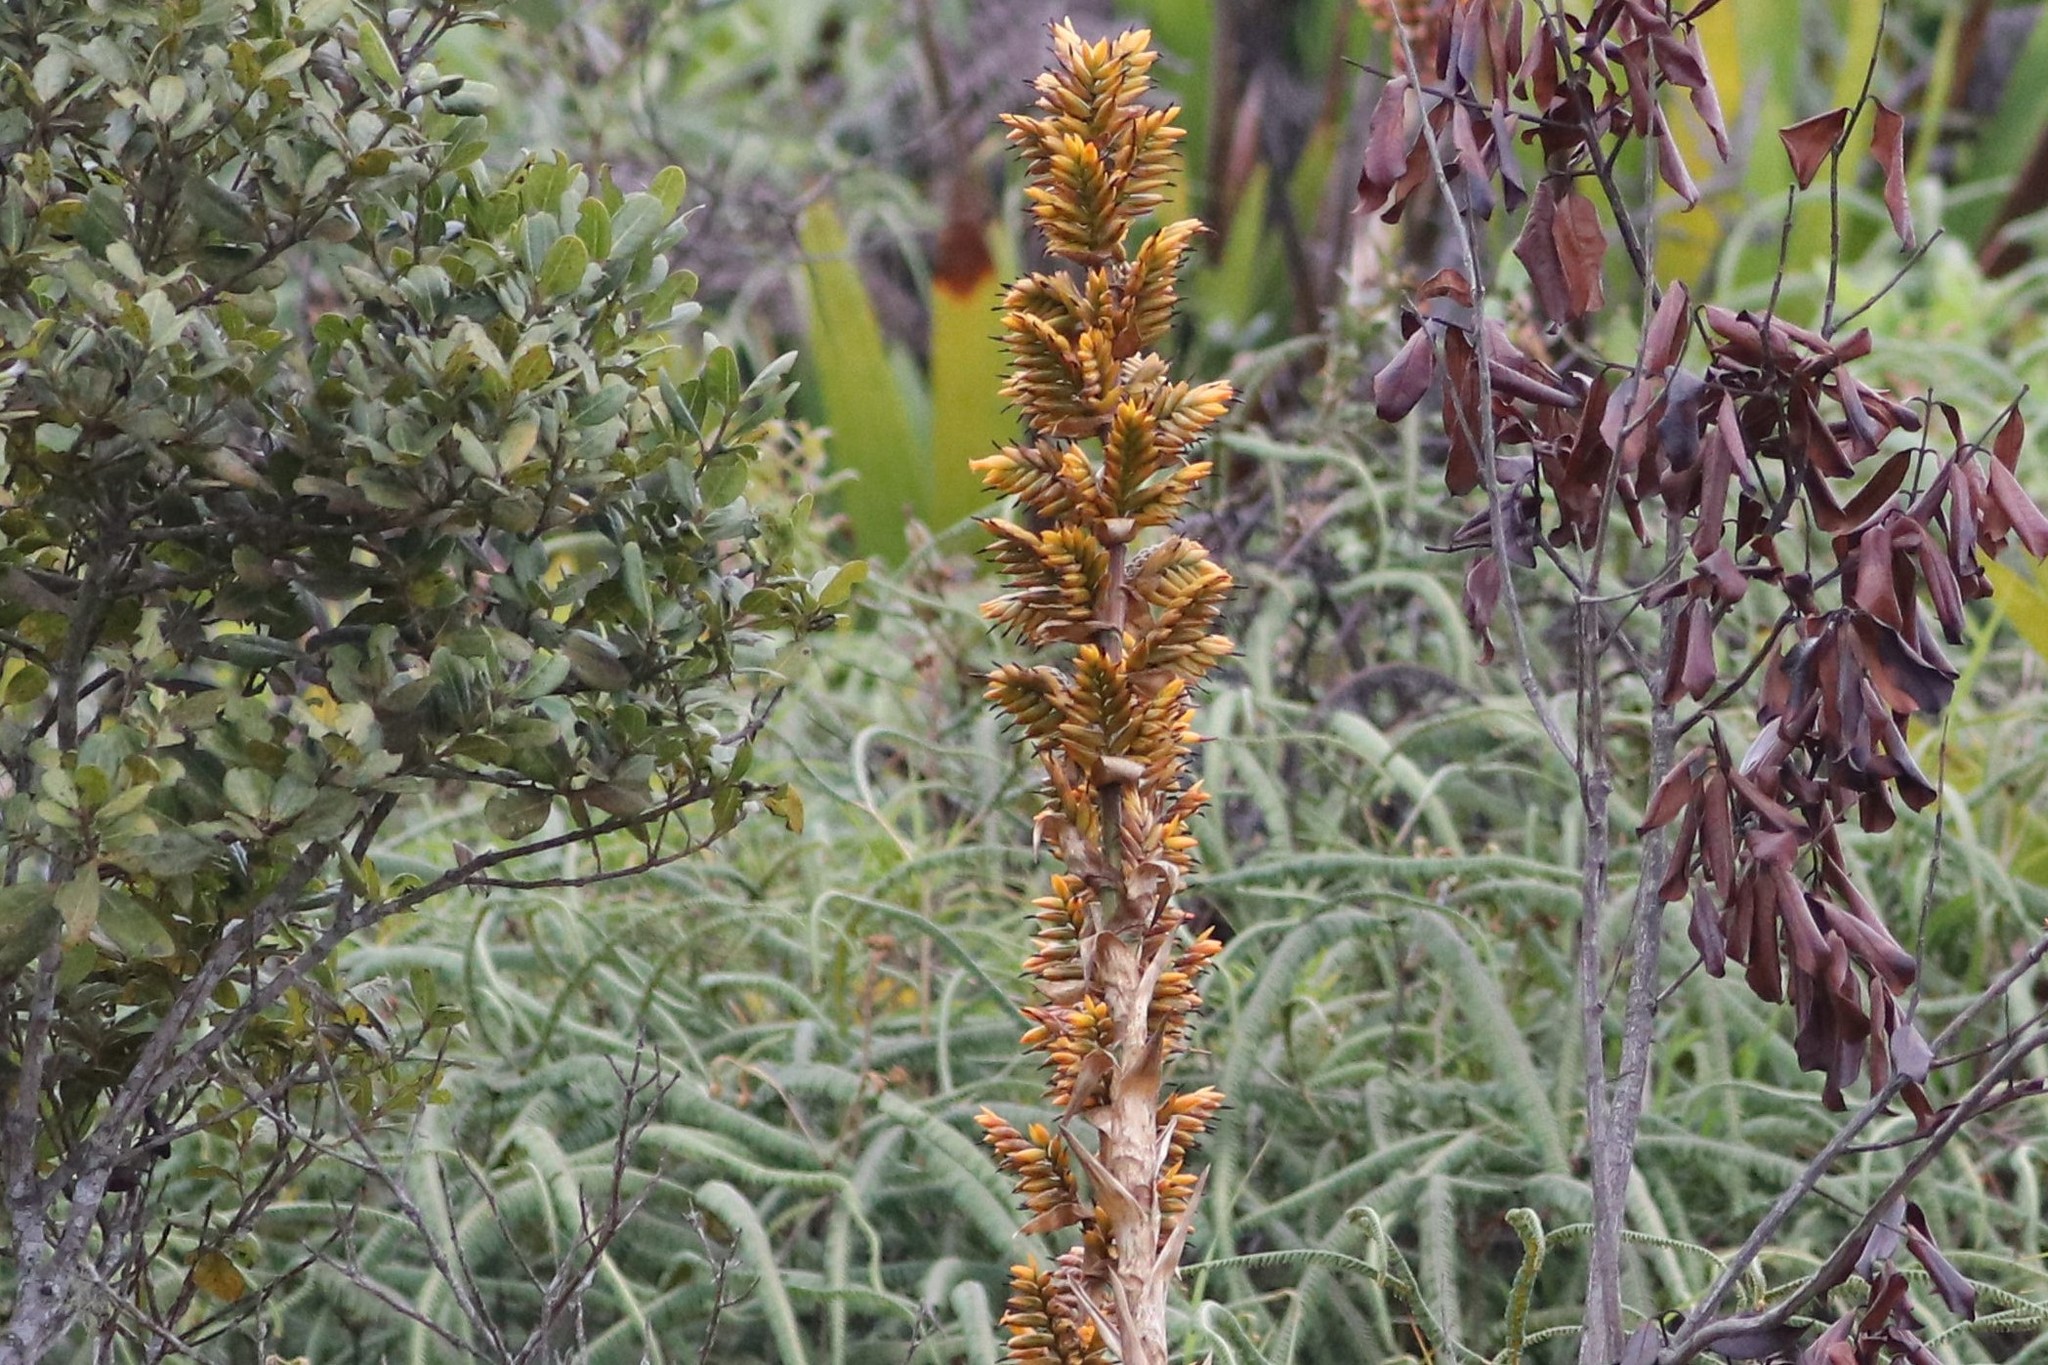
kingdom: Plantae
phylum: Tracheophyta
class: Liliopsida
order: Poales
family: Bromeliaceae
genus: Cipuropsis
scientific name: Cipuropsis hospitalis
